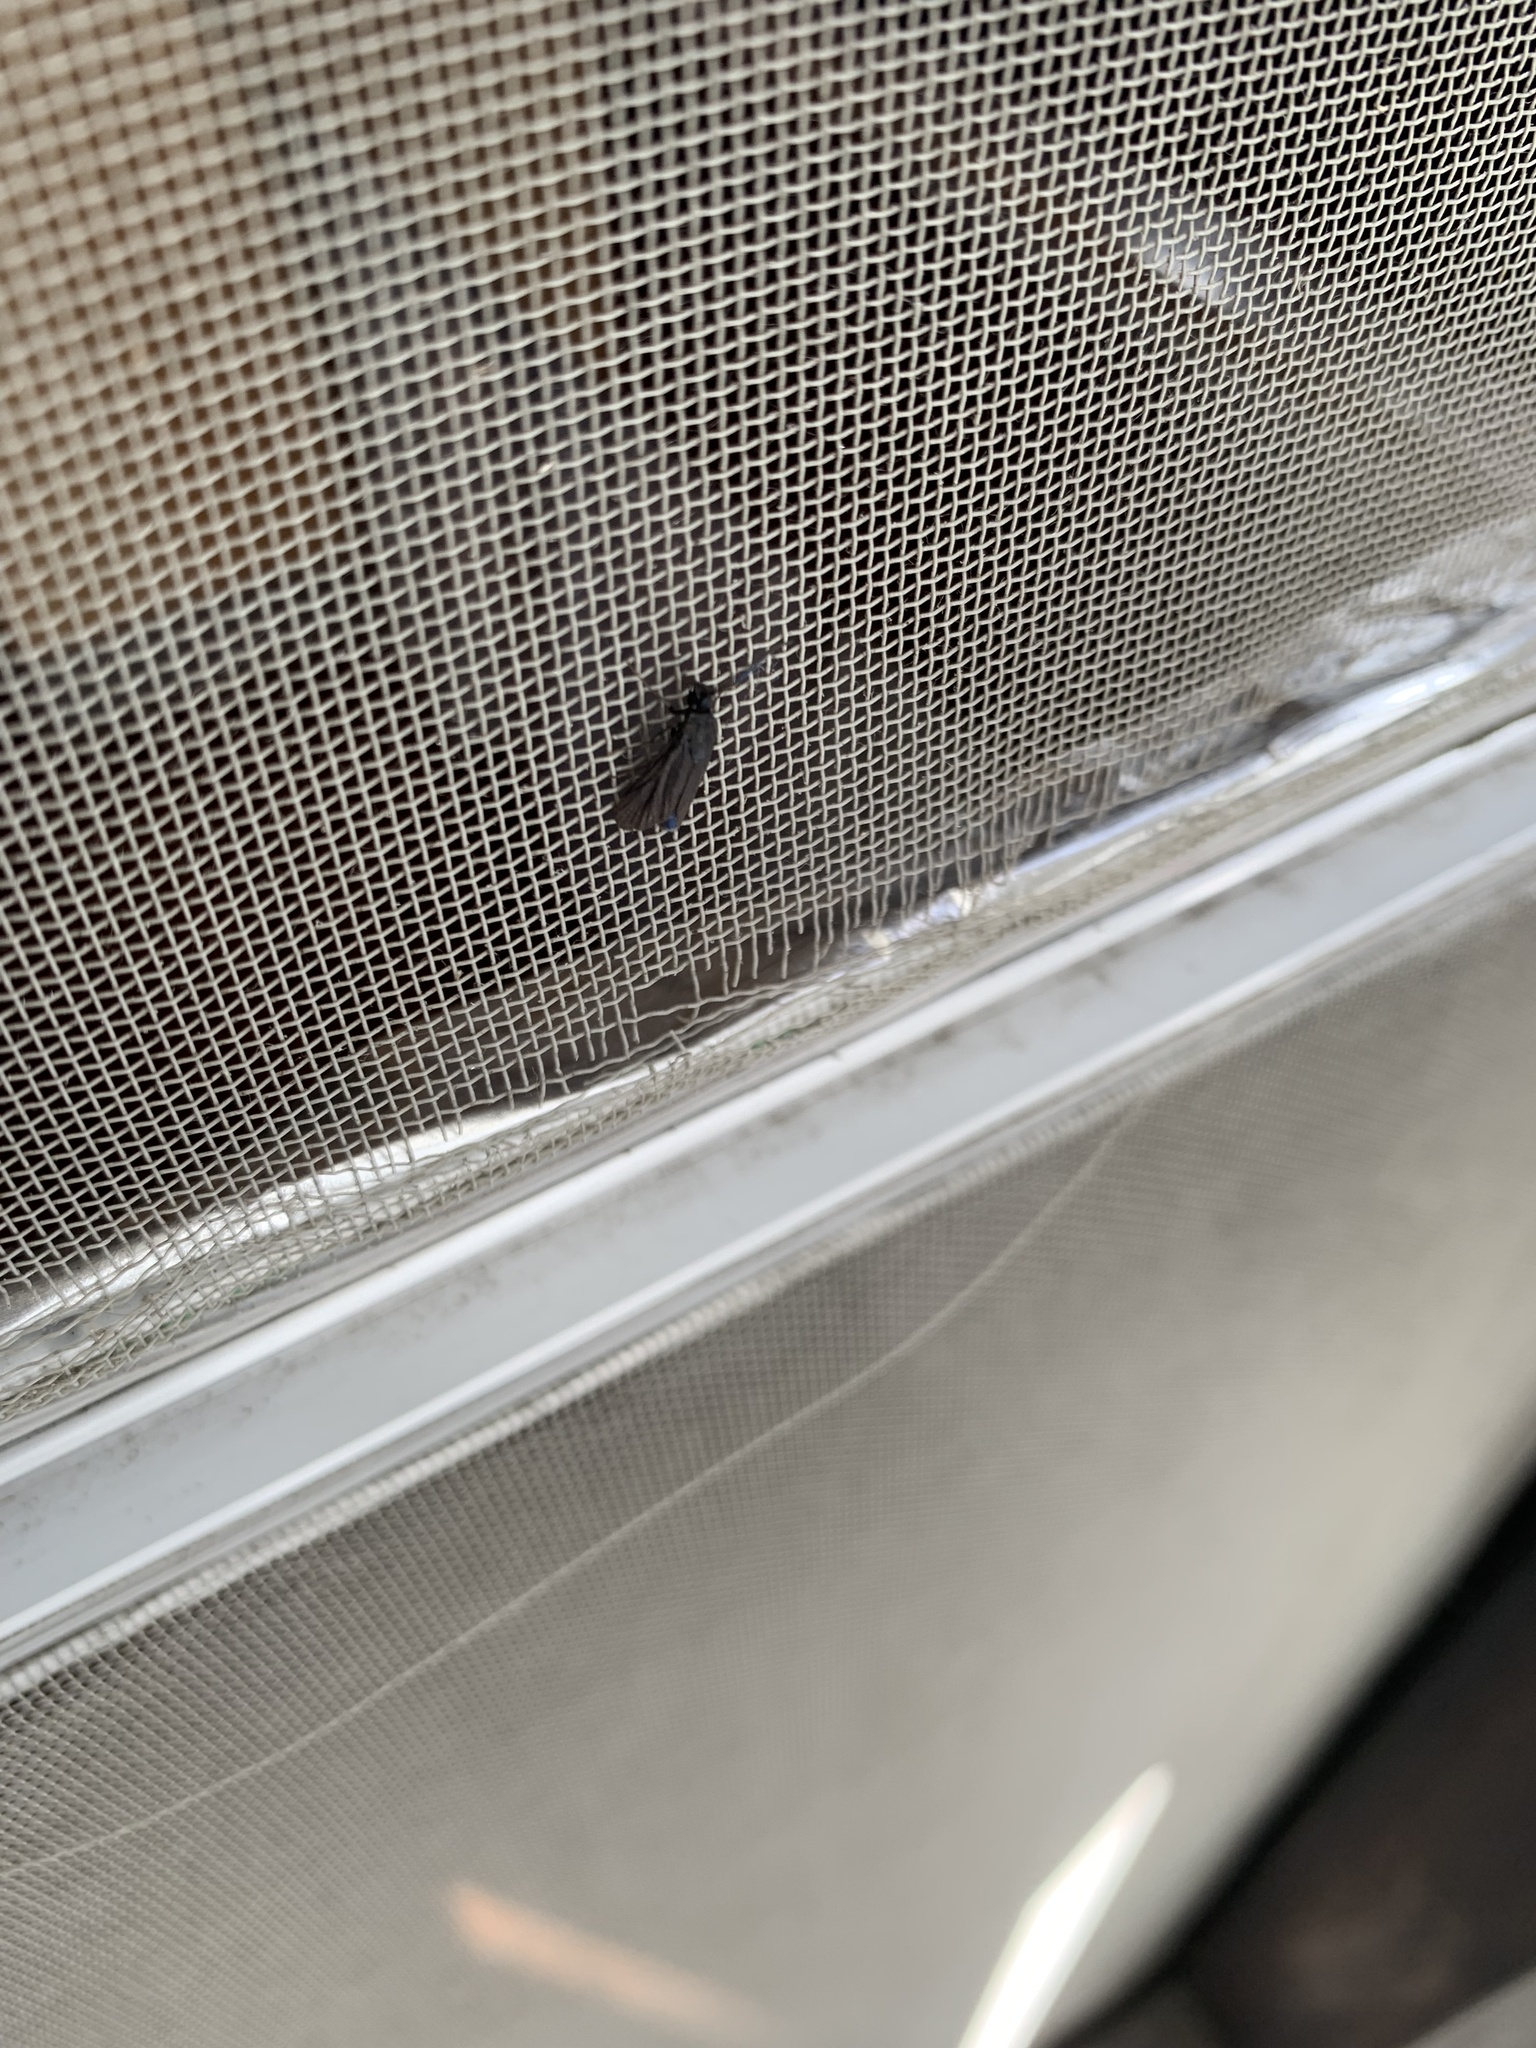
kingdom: Animalia
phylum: Arthropoda
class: Insecta
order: Lepidoptera
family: Zygaenidae
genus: Artona
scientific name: Artona martini
